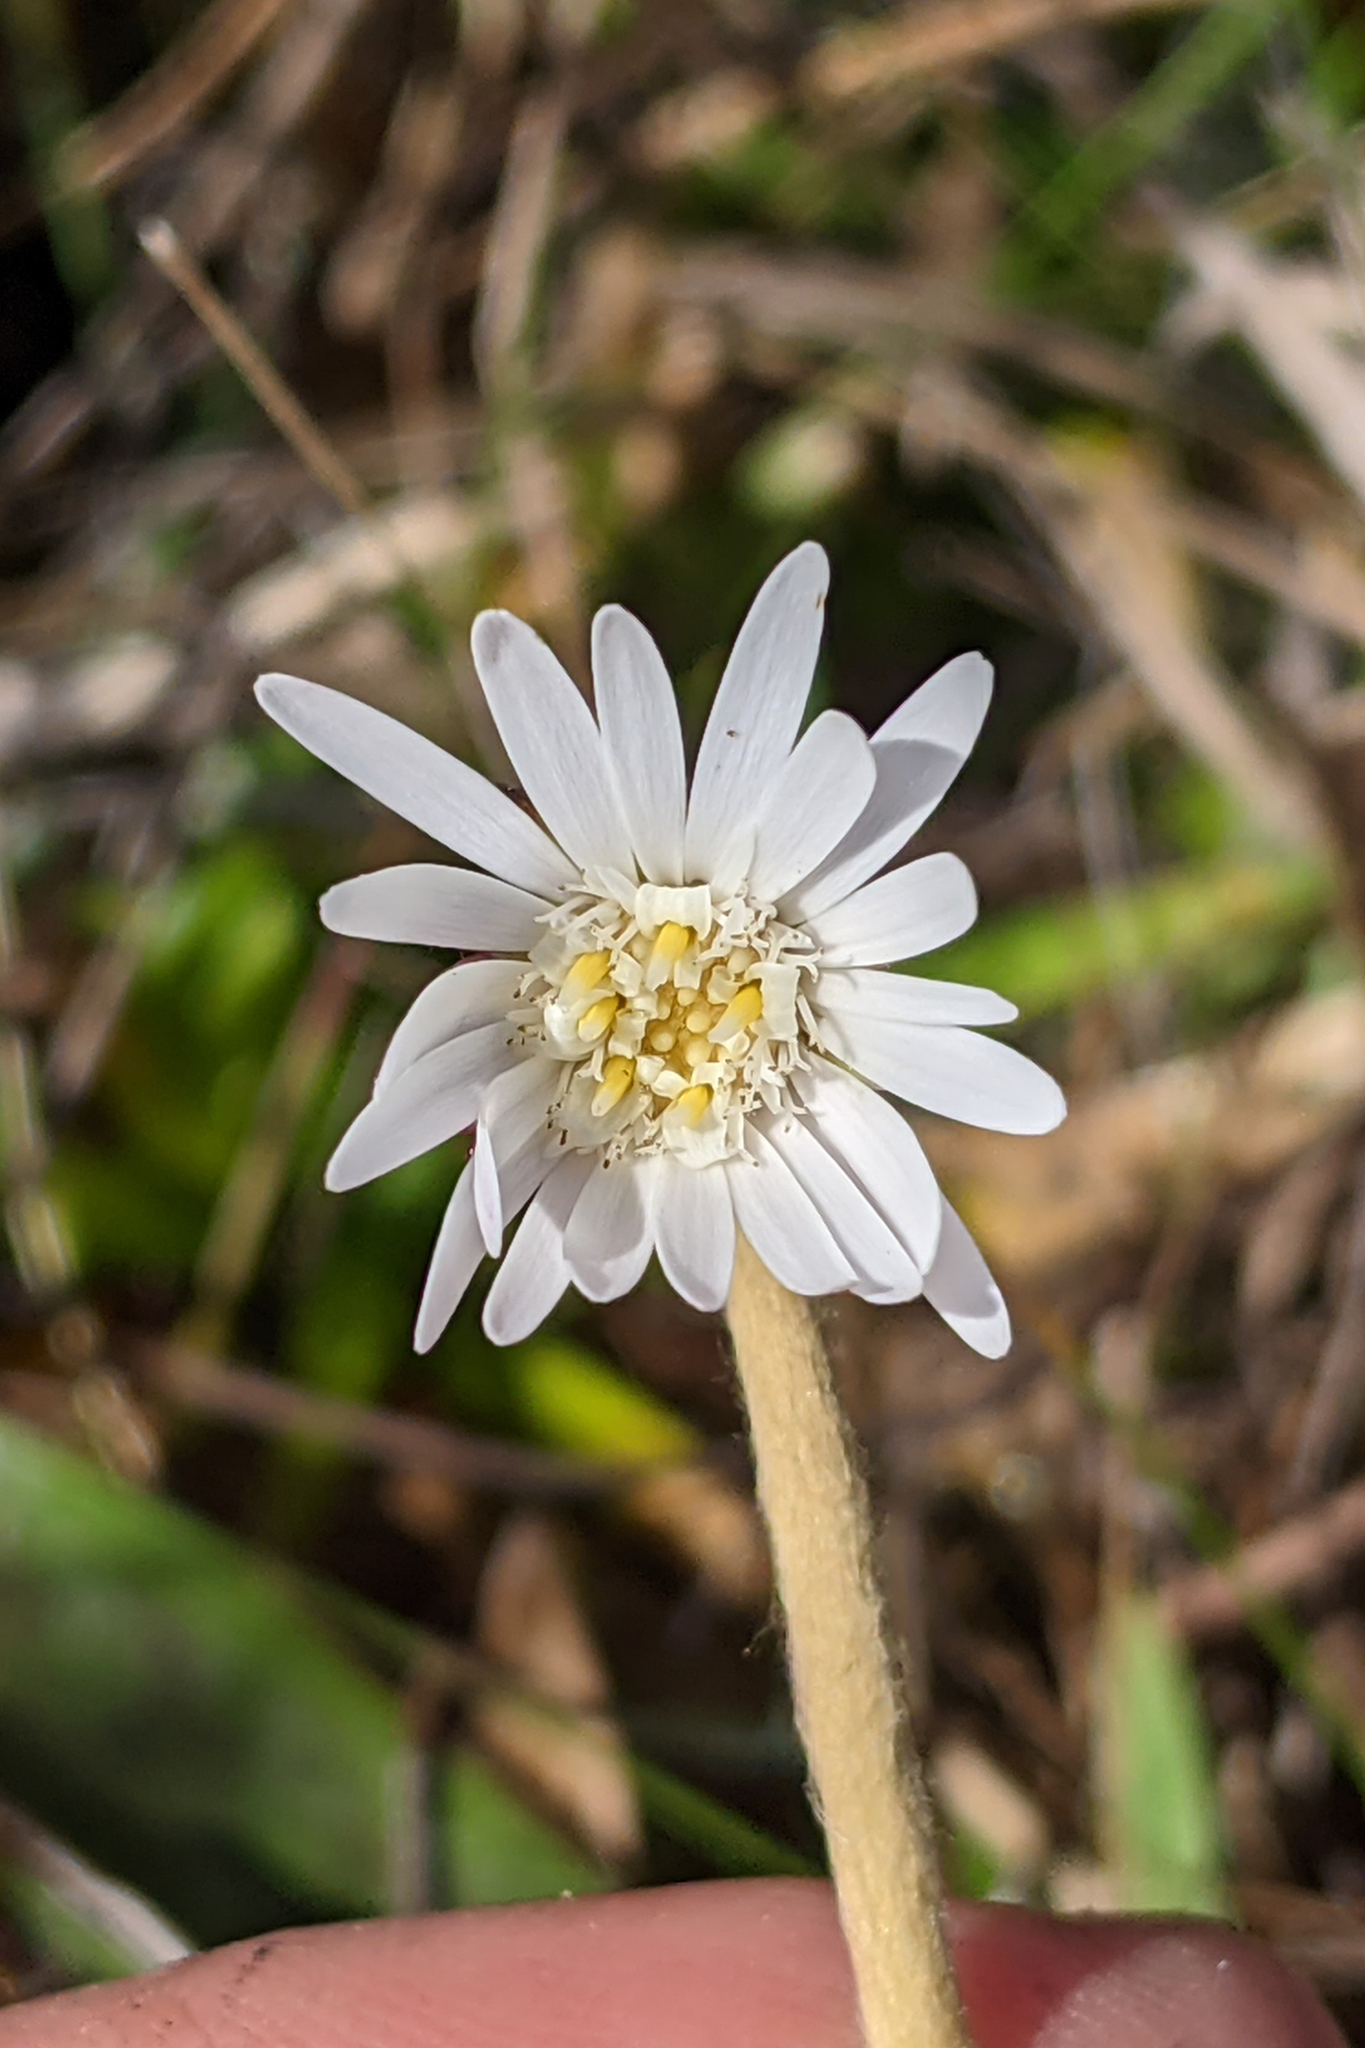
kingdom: Plantae
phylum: Tracheophyta
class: Magnoliopsida
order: Asterales
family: Asteraceae
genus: Chaptalia
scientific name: Chaptalia tomentosa
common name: Woolly sunbonnet
